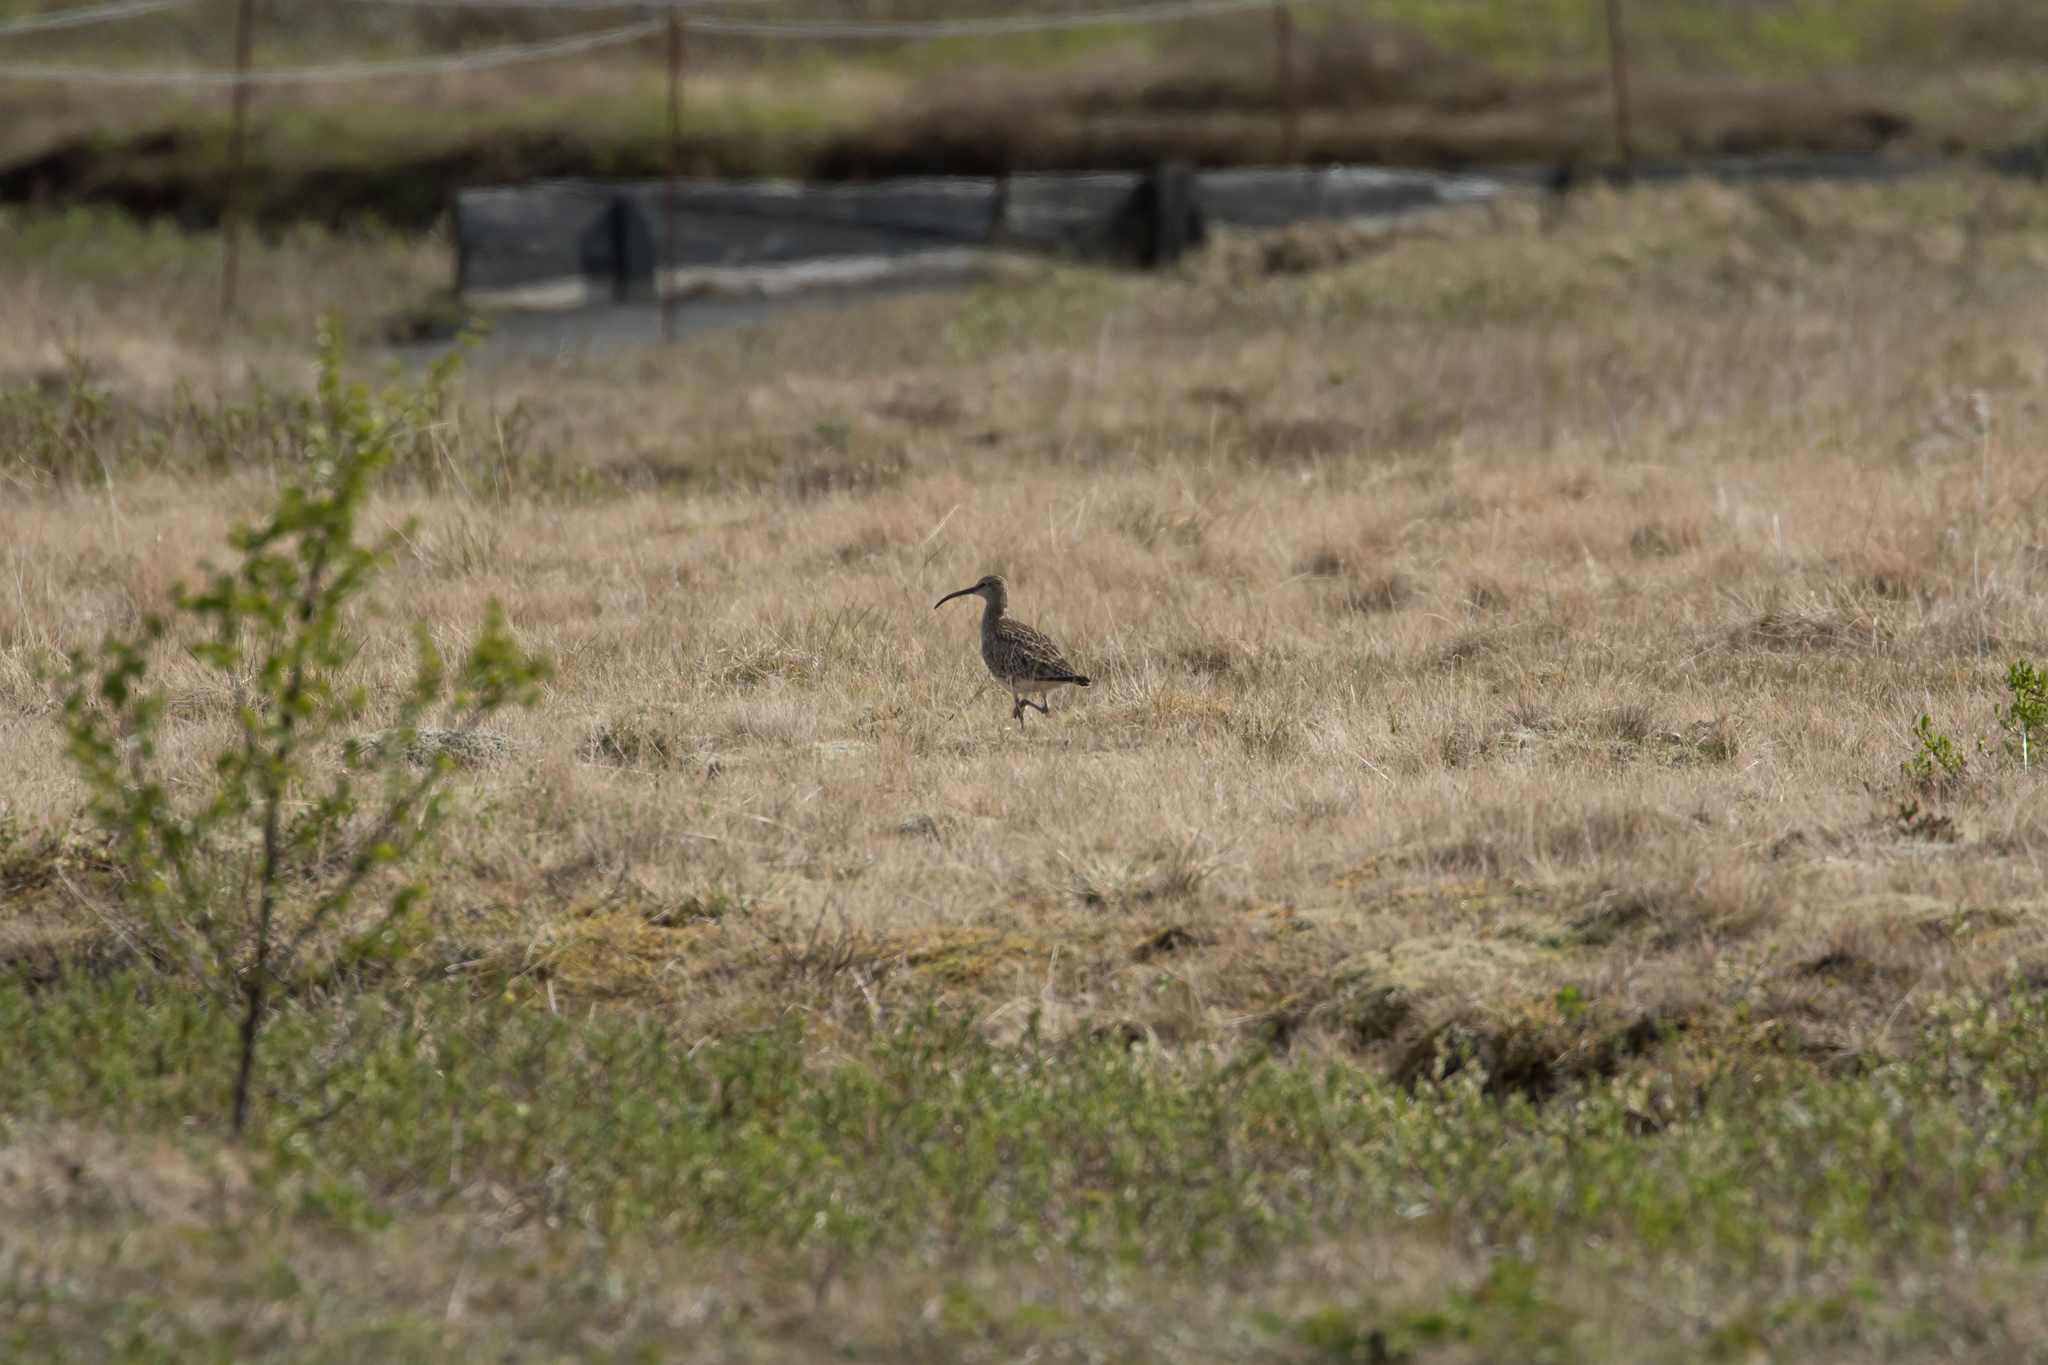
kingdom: Animalia
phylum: Chordata
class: Aves
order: Charadriiformes
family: Scolopacidae
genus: Numenius
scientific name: Numenius phaeopus
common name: Whimbrel
